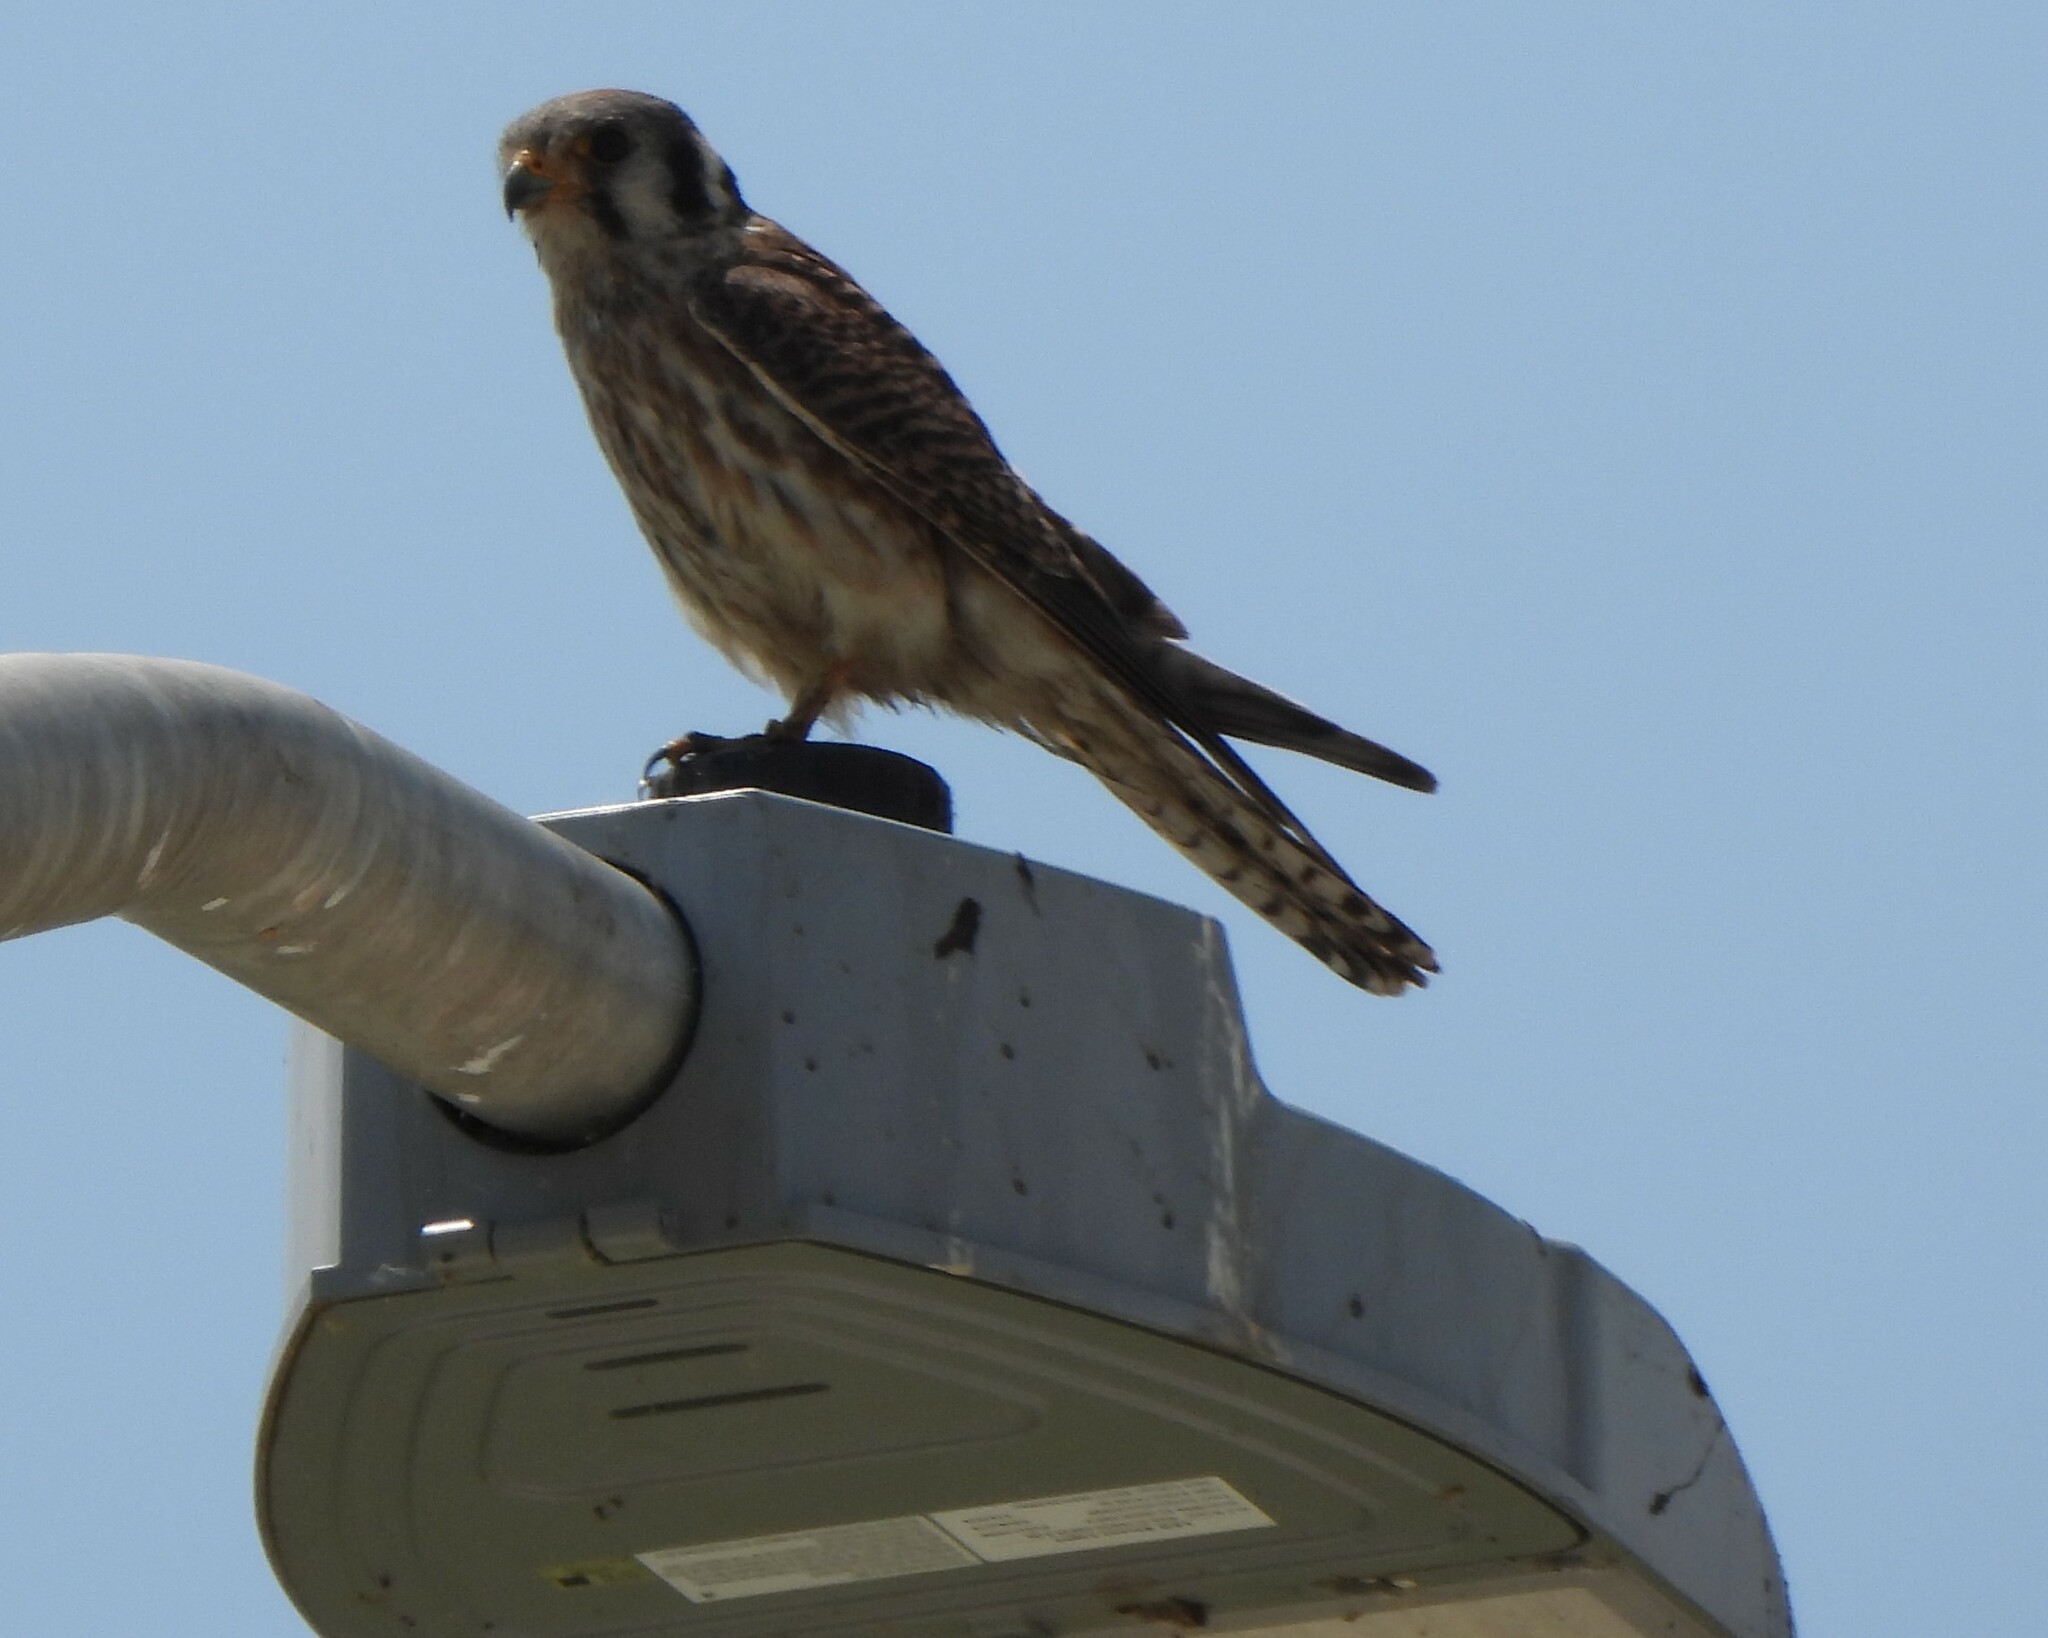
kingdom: Animalia
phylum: Chordata
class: Aves
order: Falconiformes
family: Falconidae
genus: Falco
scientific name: Falco sparverius
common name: American kestrel
